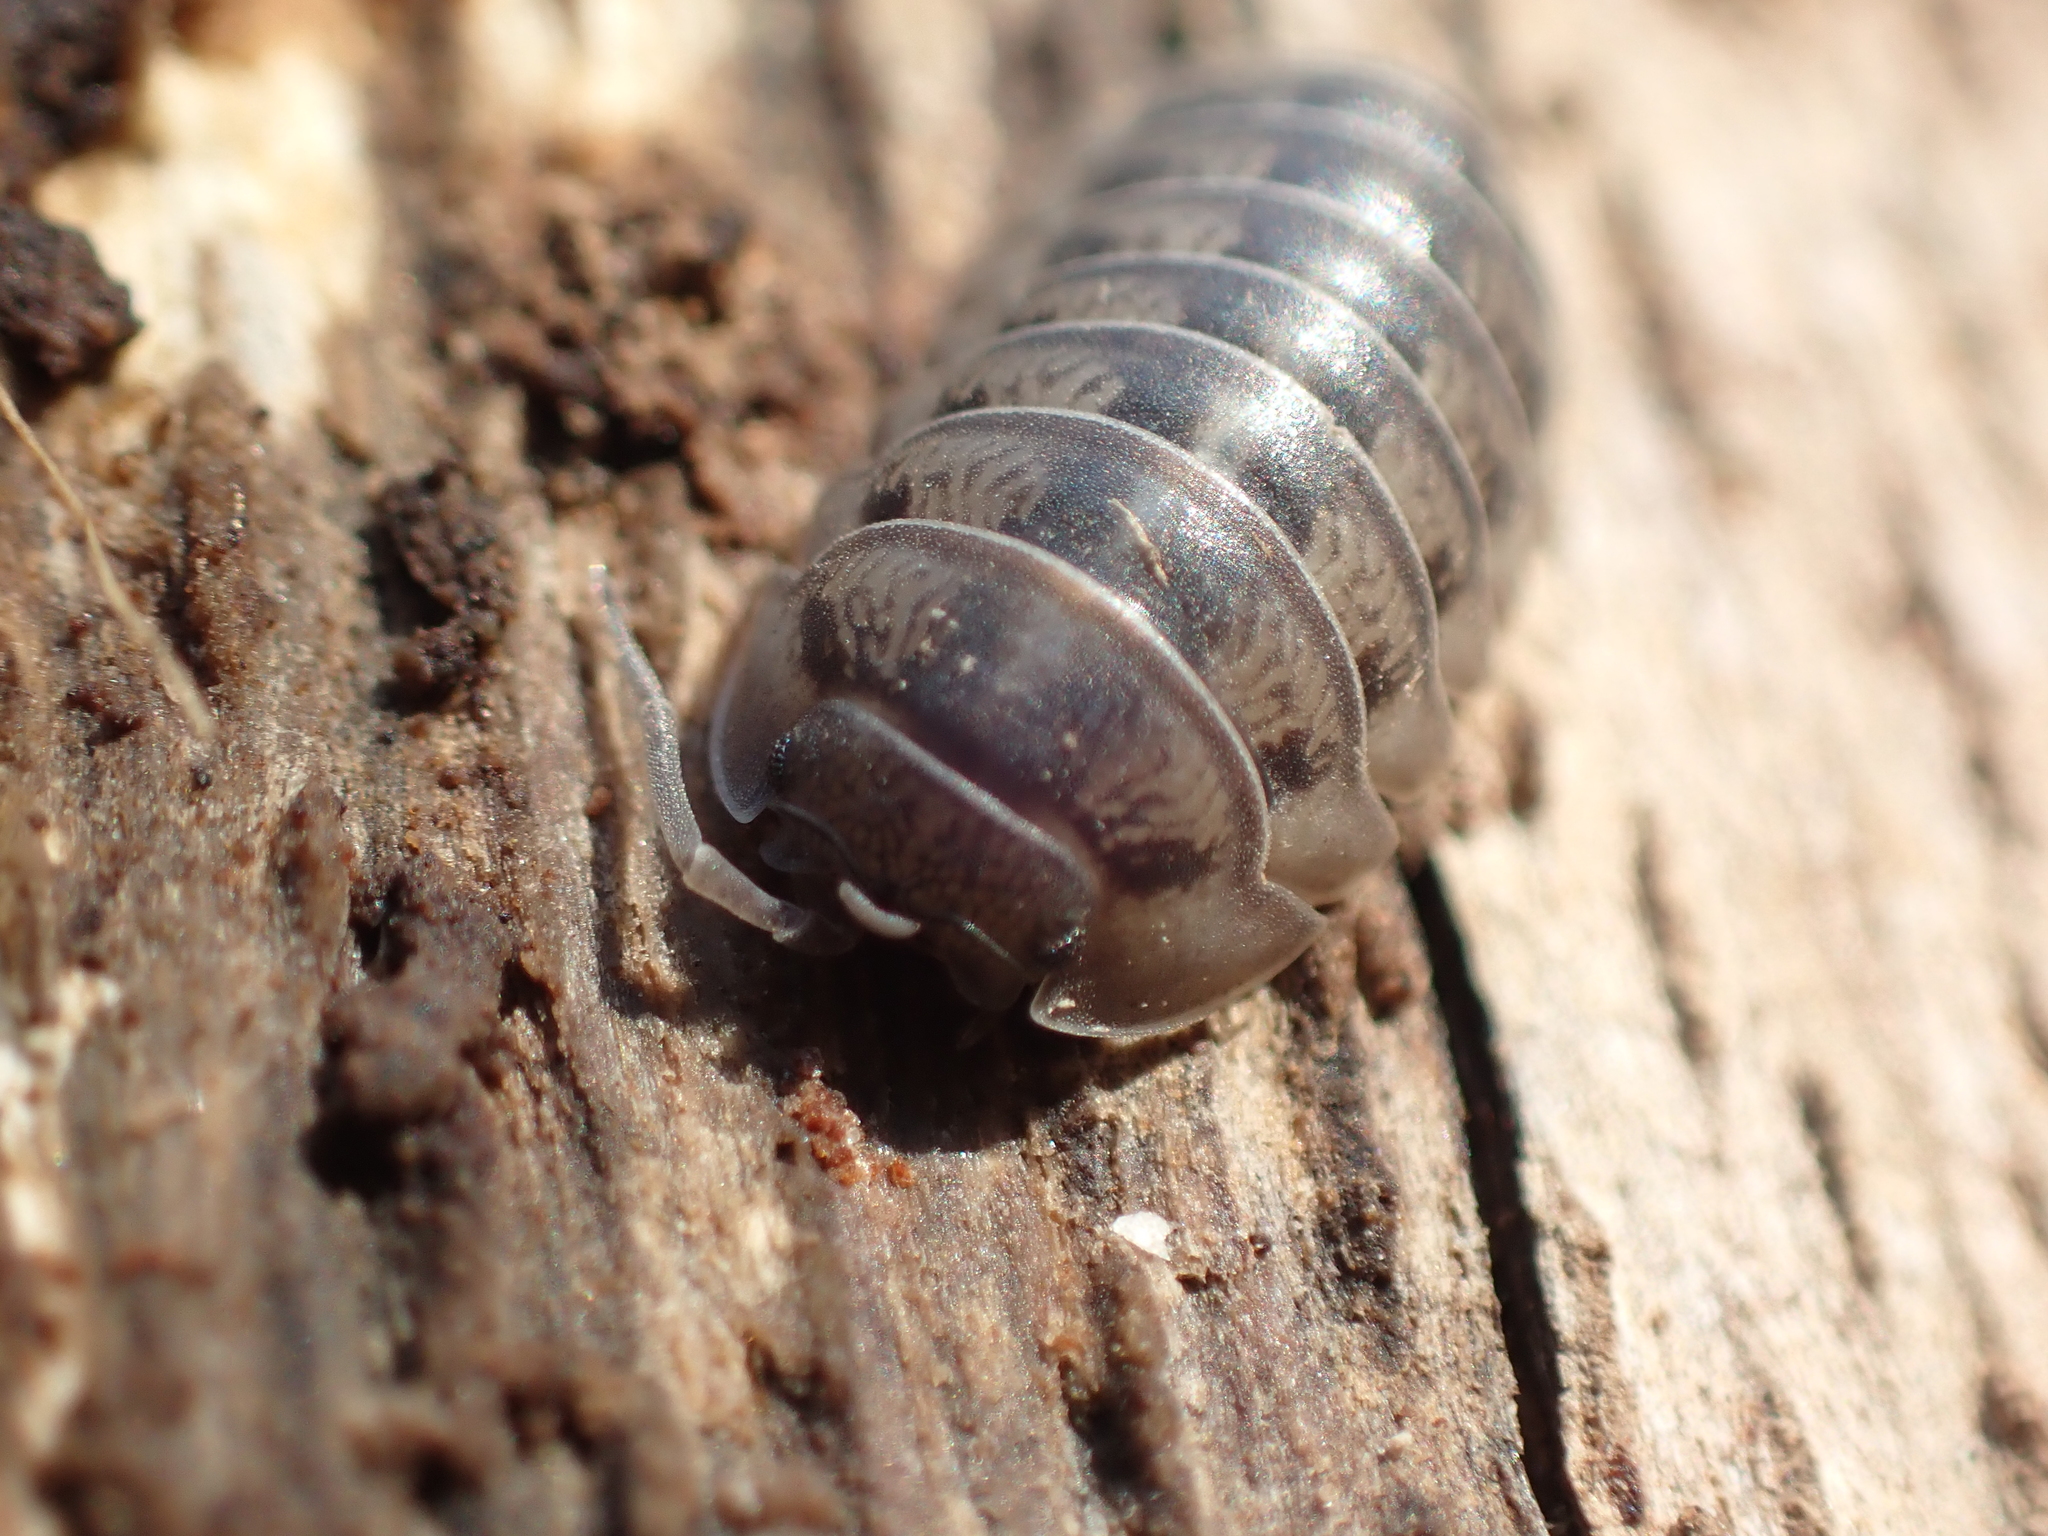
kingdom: Animalia
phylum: Arthropoda
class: Malacostraca
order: Isopoda
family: Armadillidiidae
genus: Armadillidium
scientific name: Armadillidium nasatum
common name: Isopod
